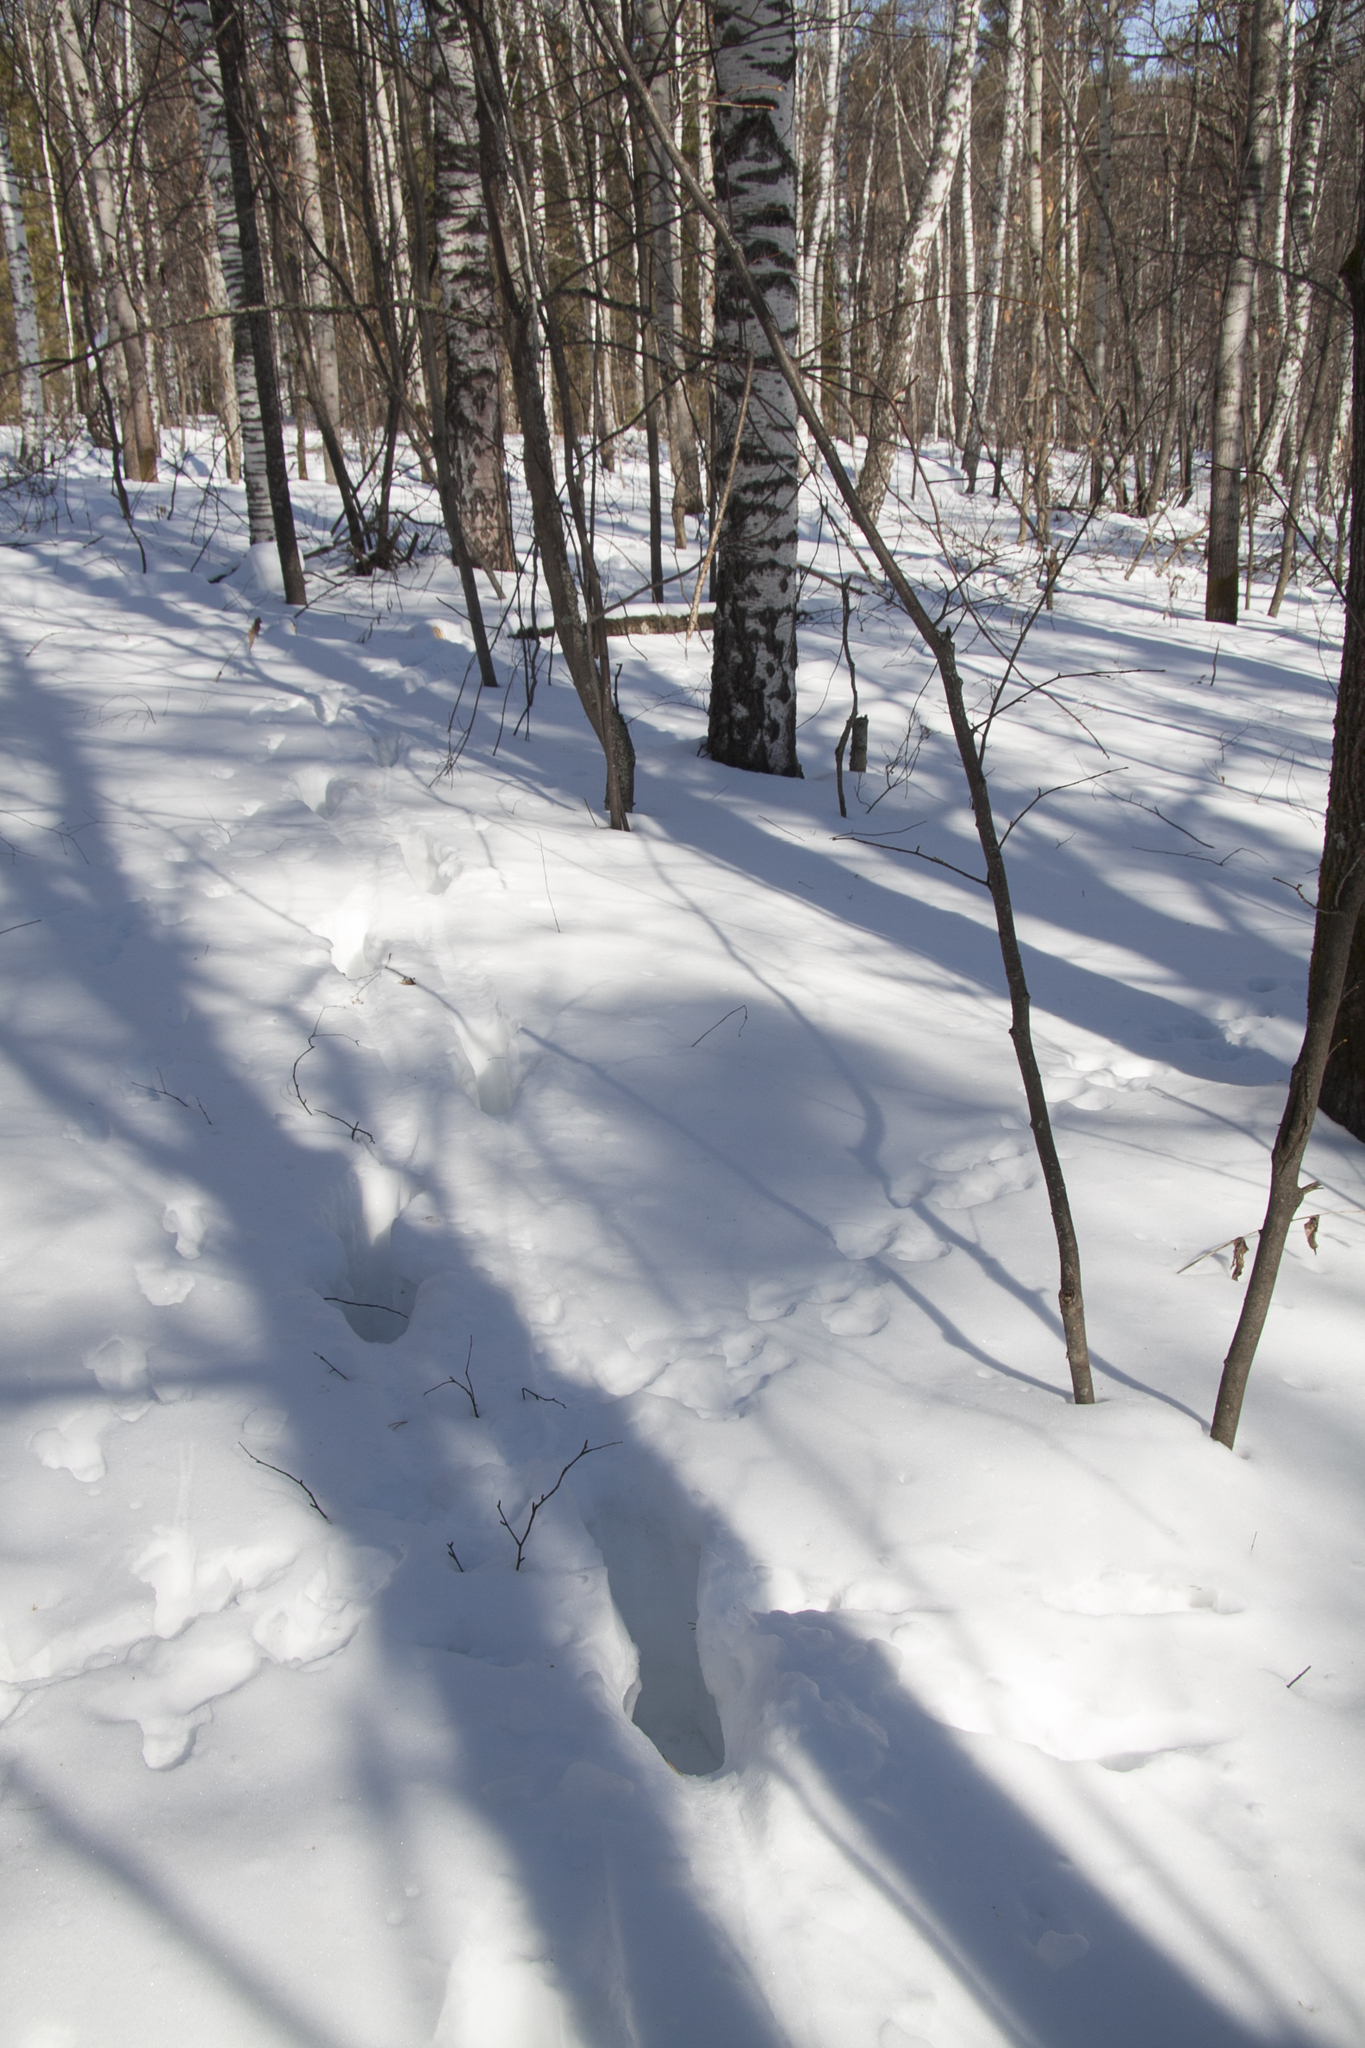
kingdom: Animalia
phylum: Chordata
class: Mammalia
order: Artiodactyla
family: Cervidae
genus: Alces
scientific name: Alces alces
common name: Moose
